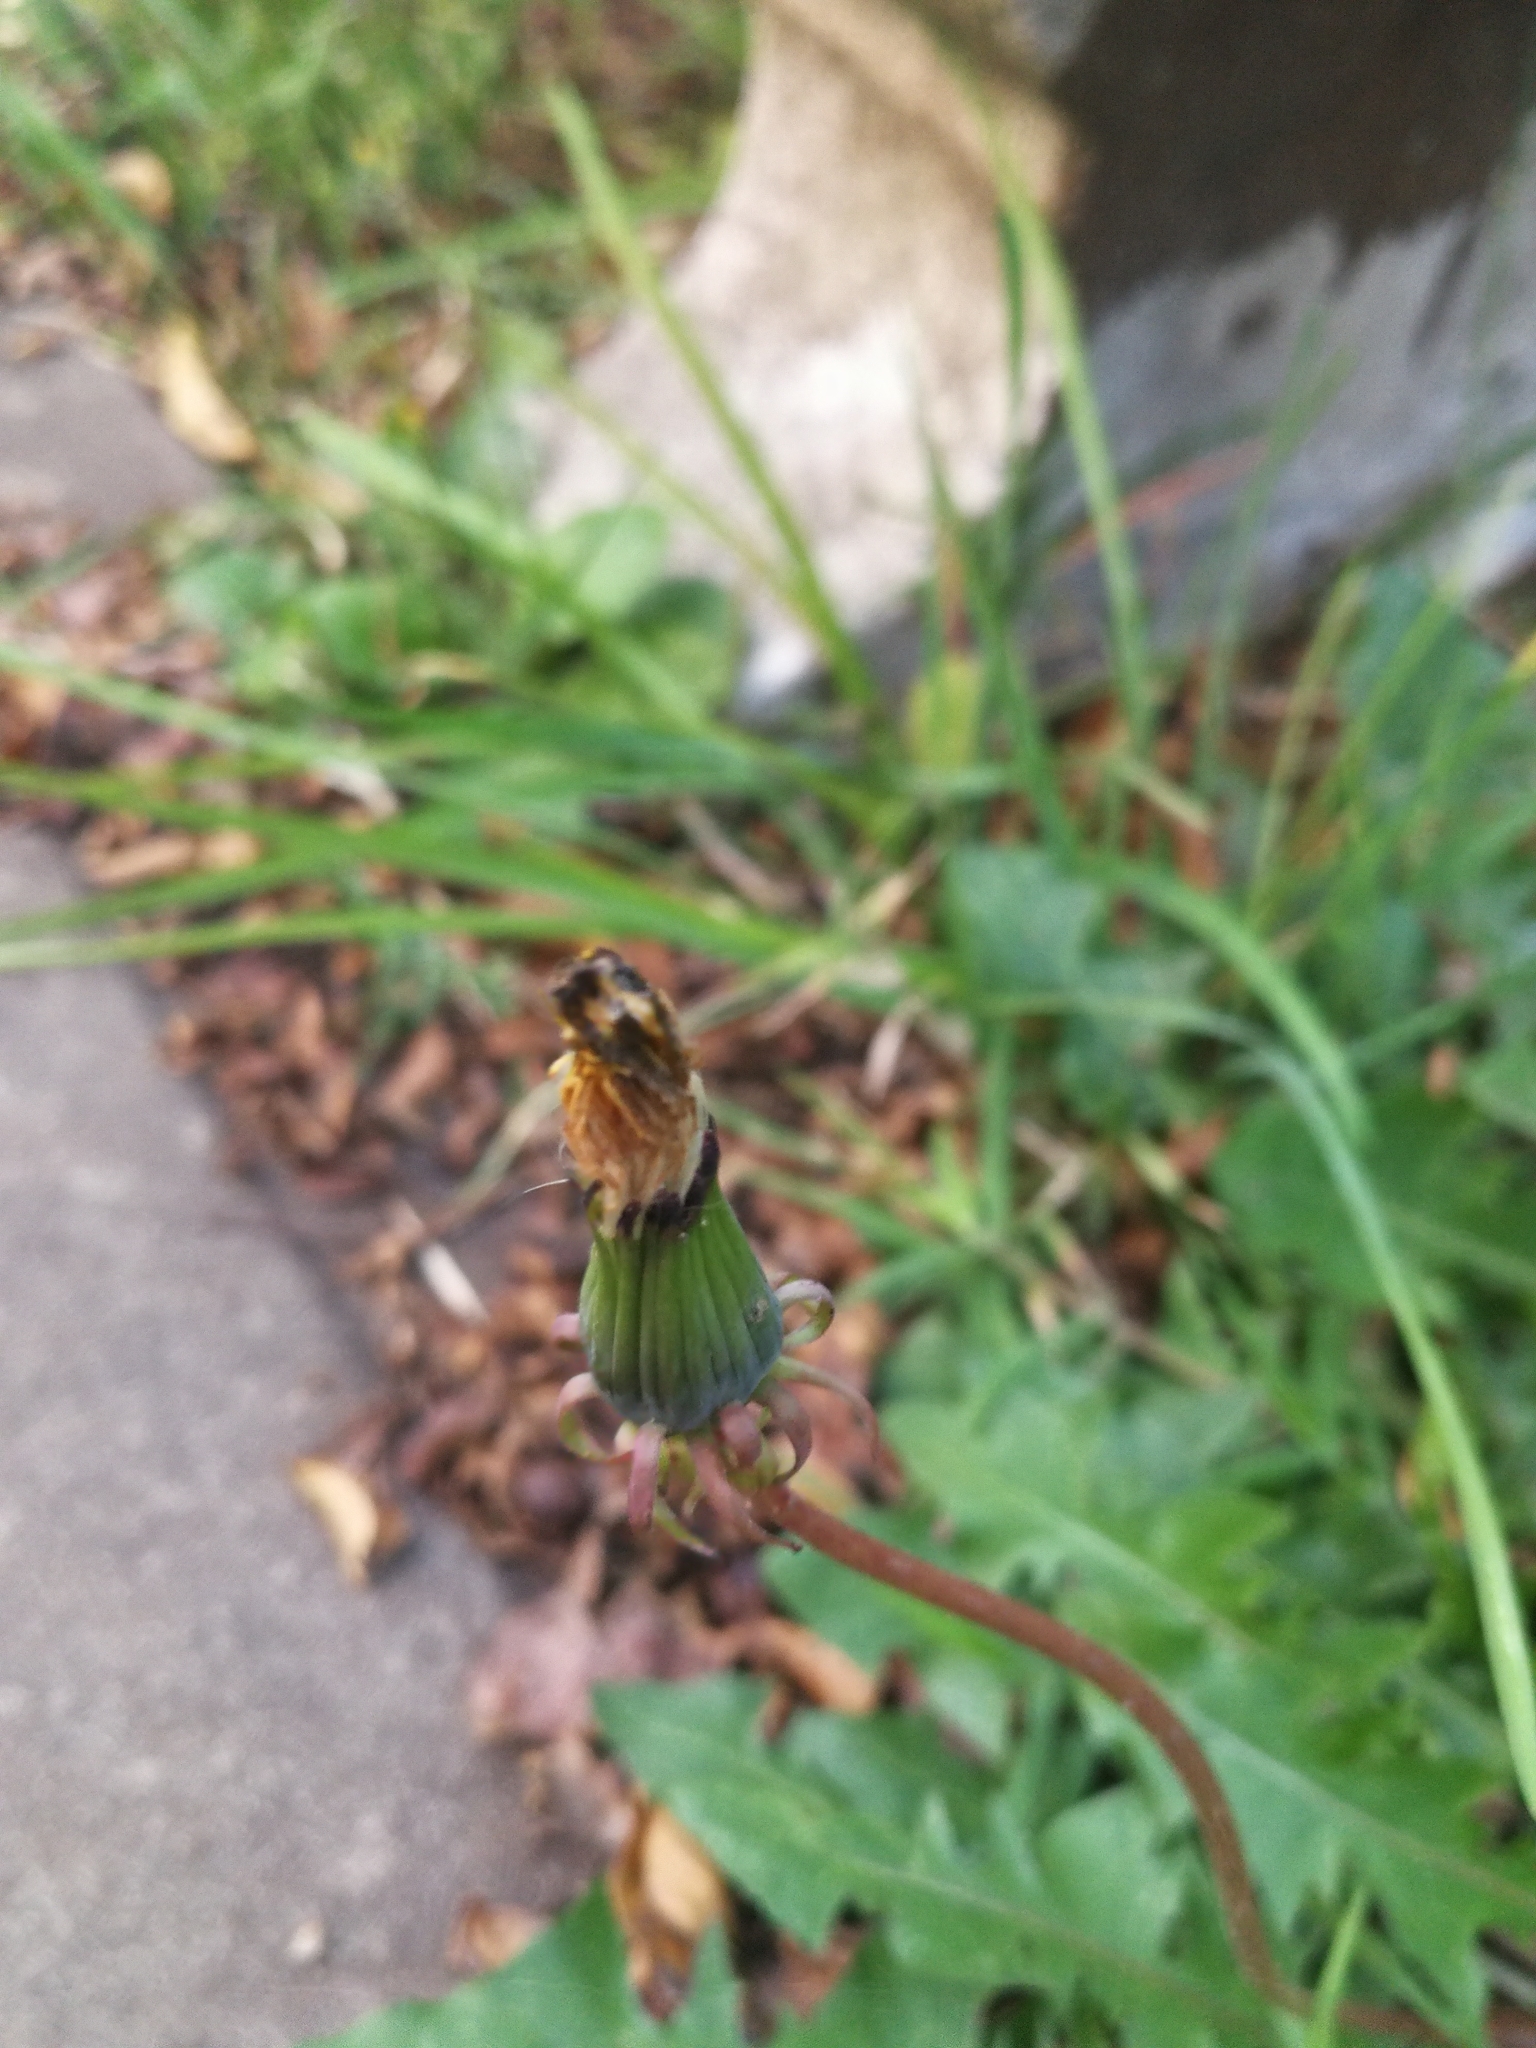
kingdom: Plantae
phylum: Tracheophyta
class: Magnoliopsida
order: Asterales
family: Asteraceae
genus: Taraxacum
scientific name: Taraxacum officinale
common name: Common dandelion
